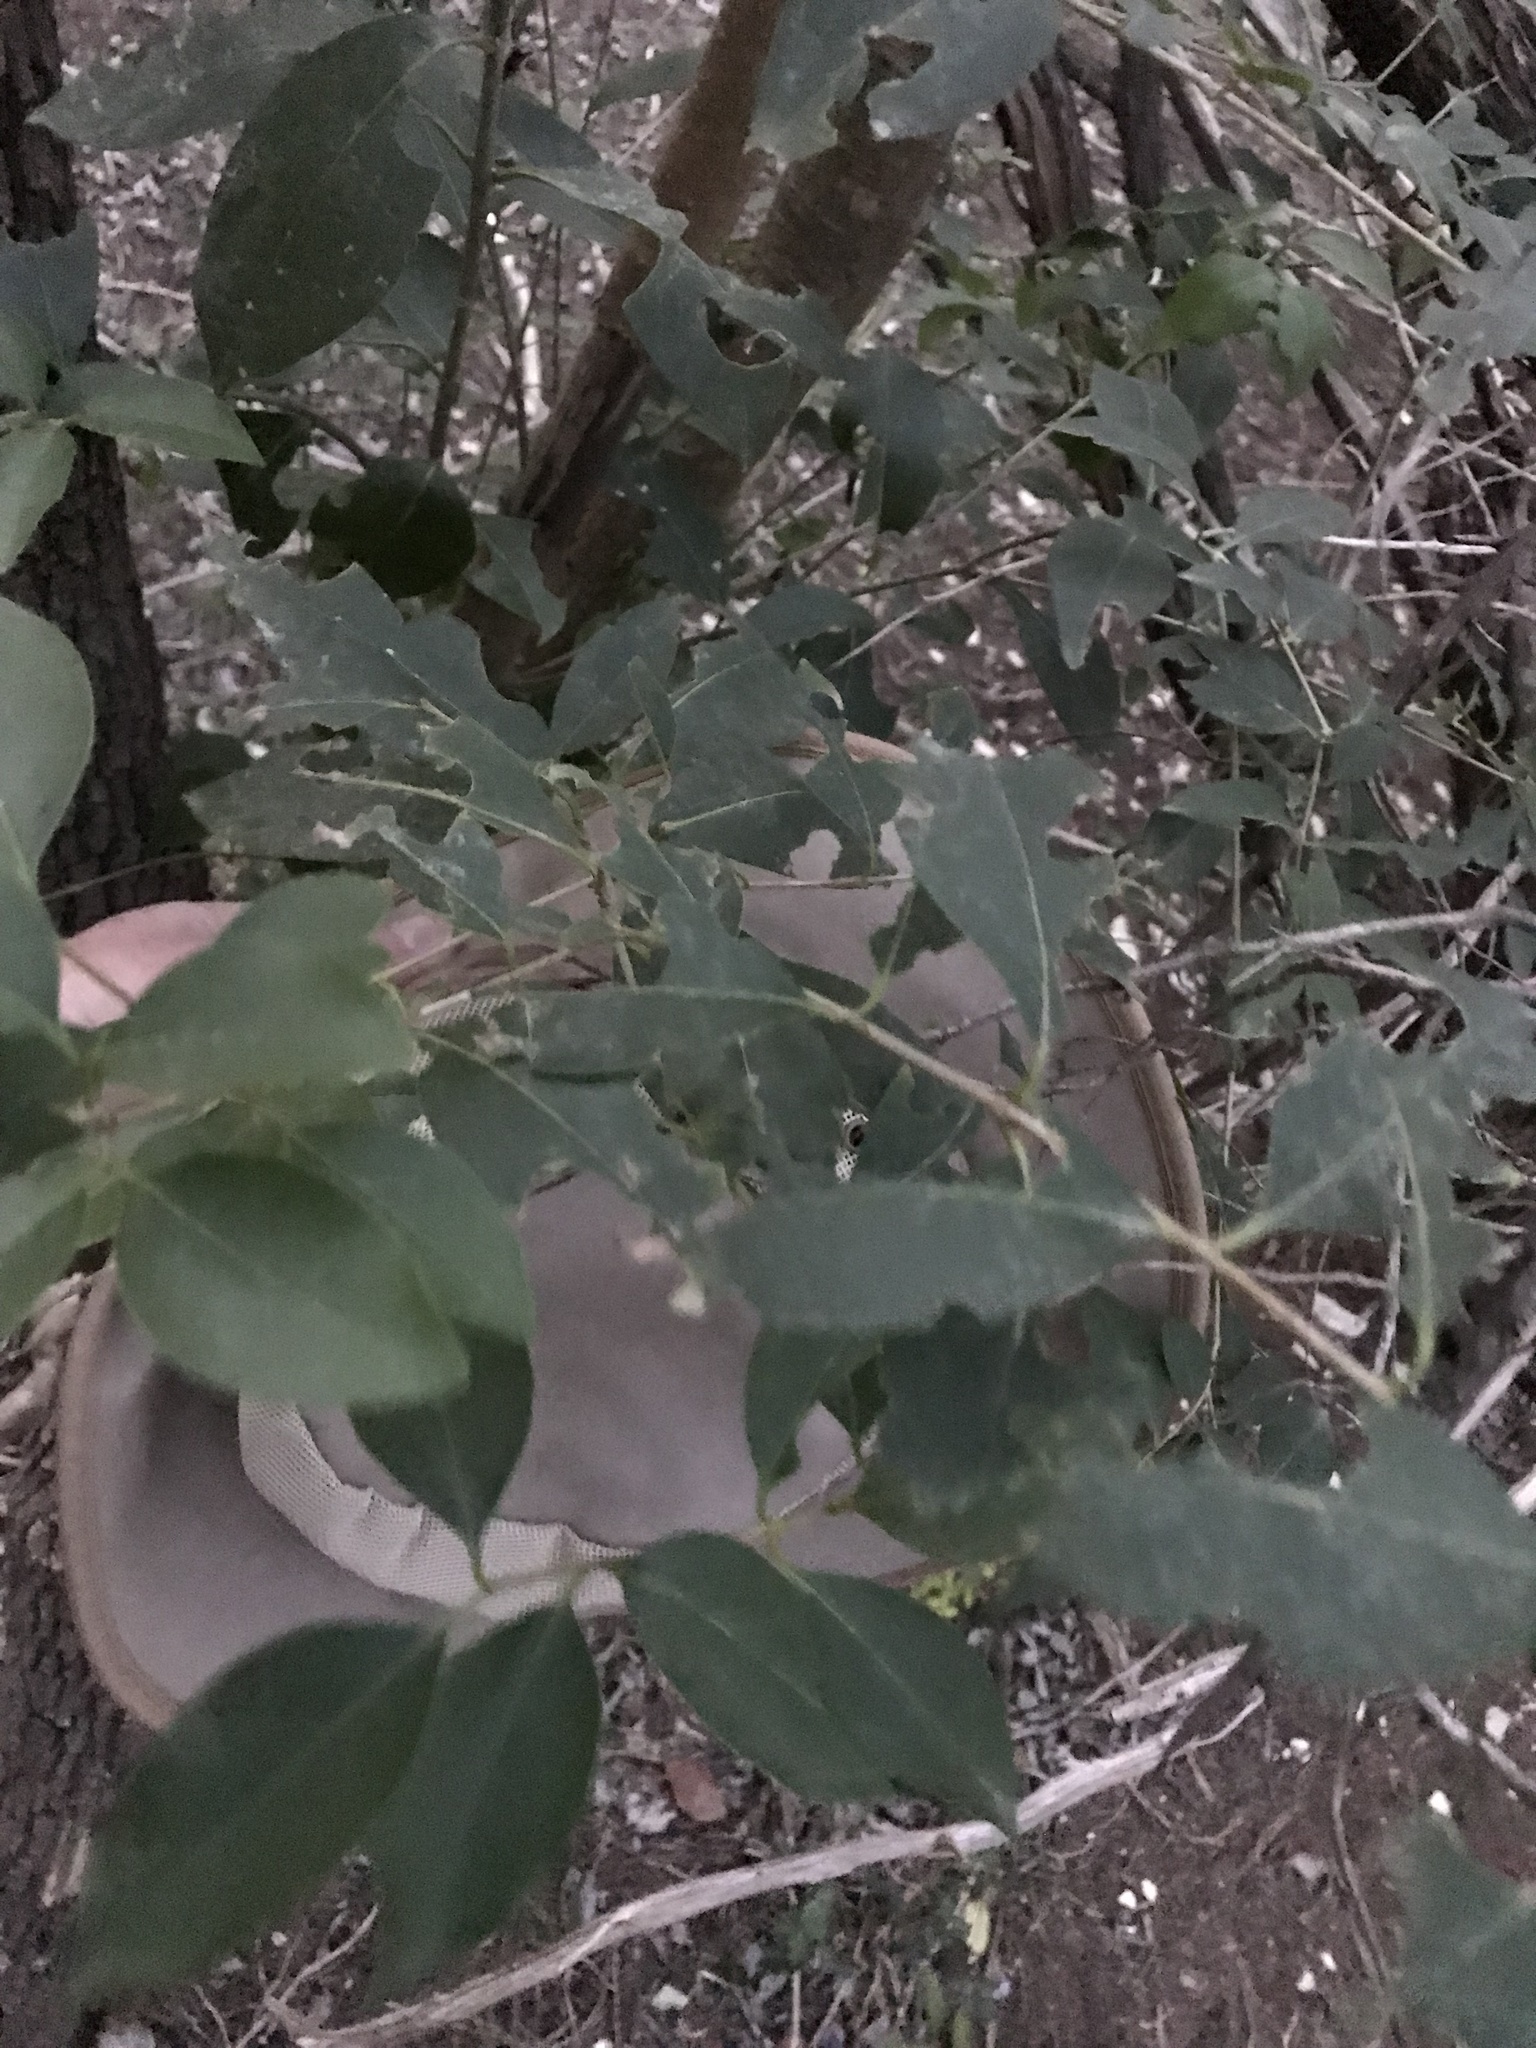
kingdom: Plantae
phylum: Tracheophyta
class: Magnoliopsida
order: Lamiales
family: Oleaceae
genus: Ligustrum
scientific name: Ligustrum lucidum
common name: Glossy privet
